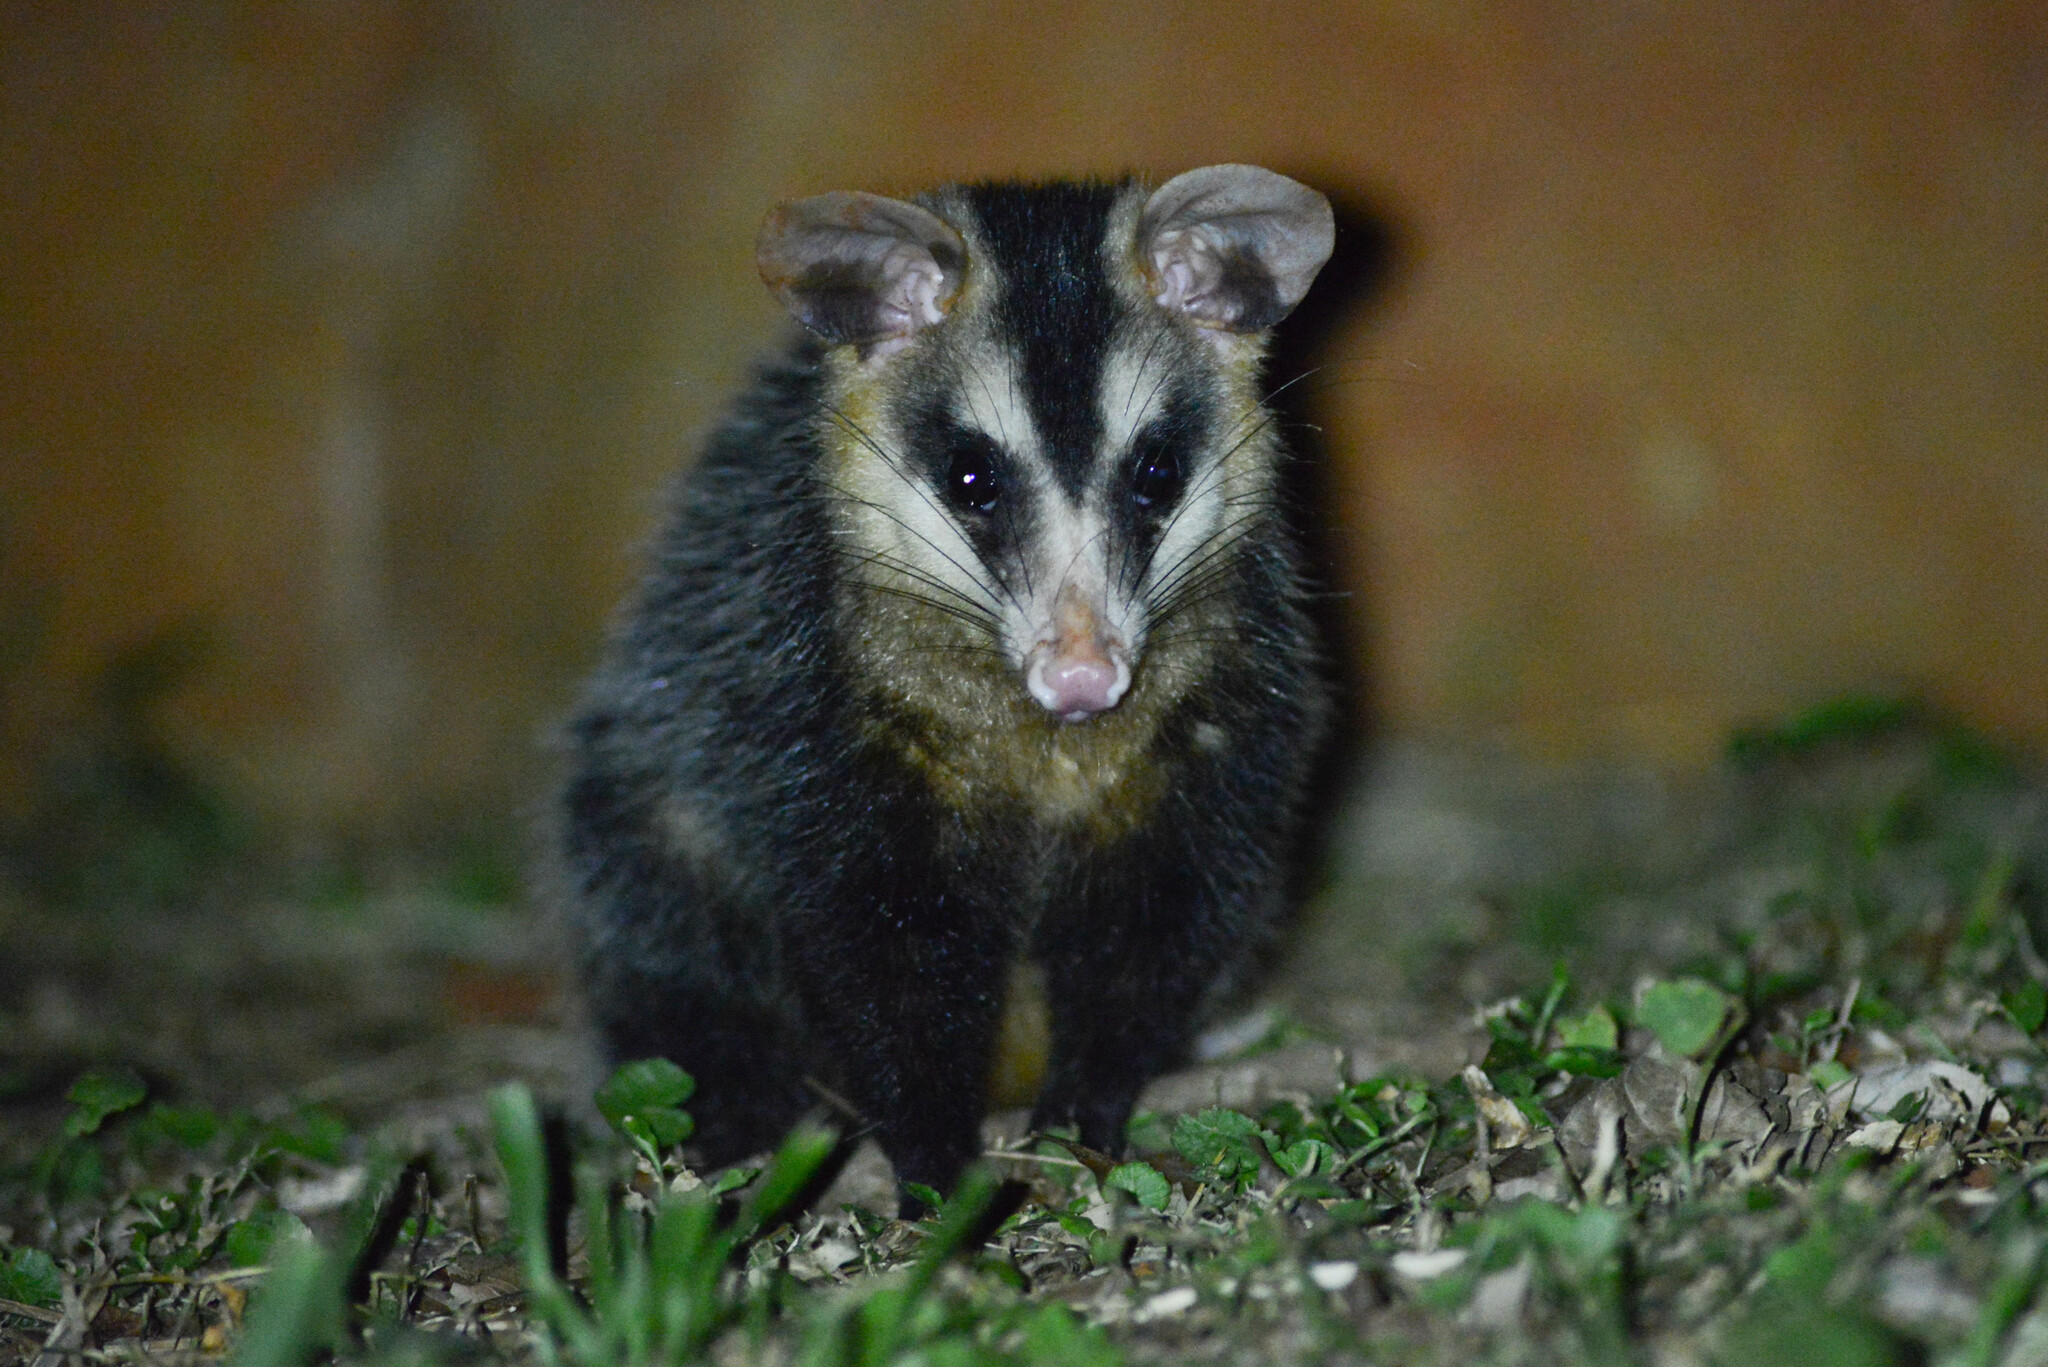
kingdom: Animalia
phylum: Chordata
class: Mammalia
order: Didelphimorphia
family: Didelphidae
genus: Didelphis
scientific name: Didelphis albiventris
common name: White-eared opossum
